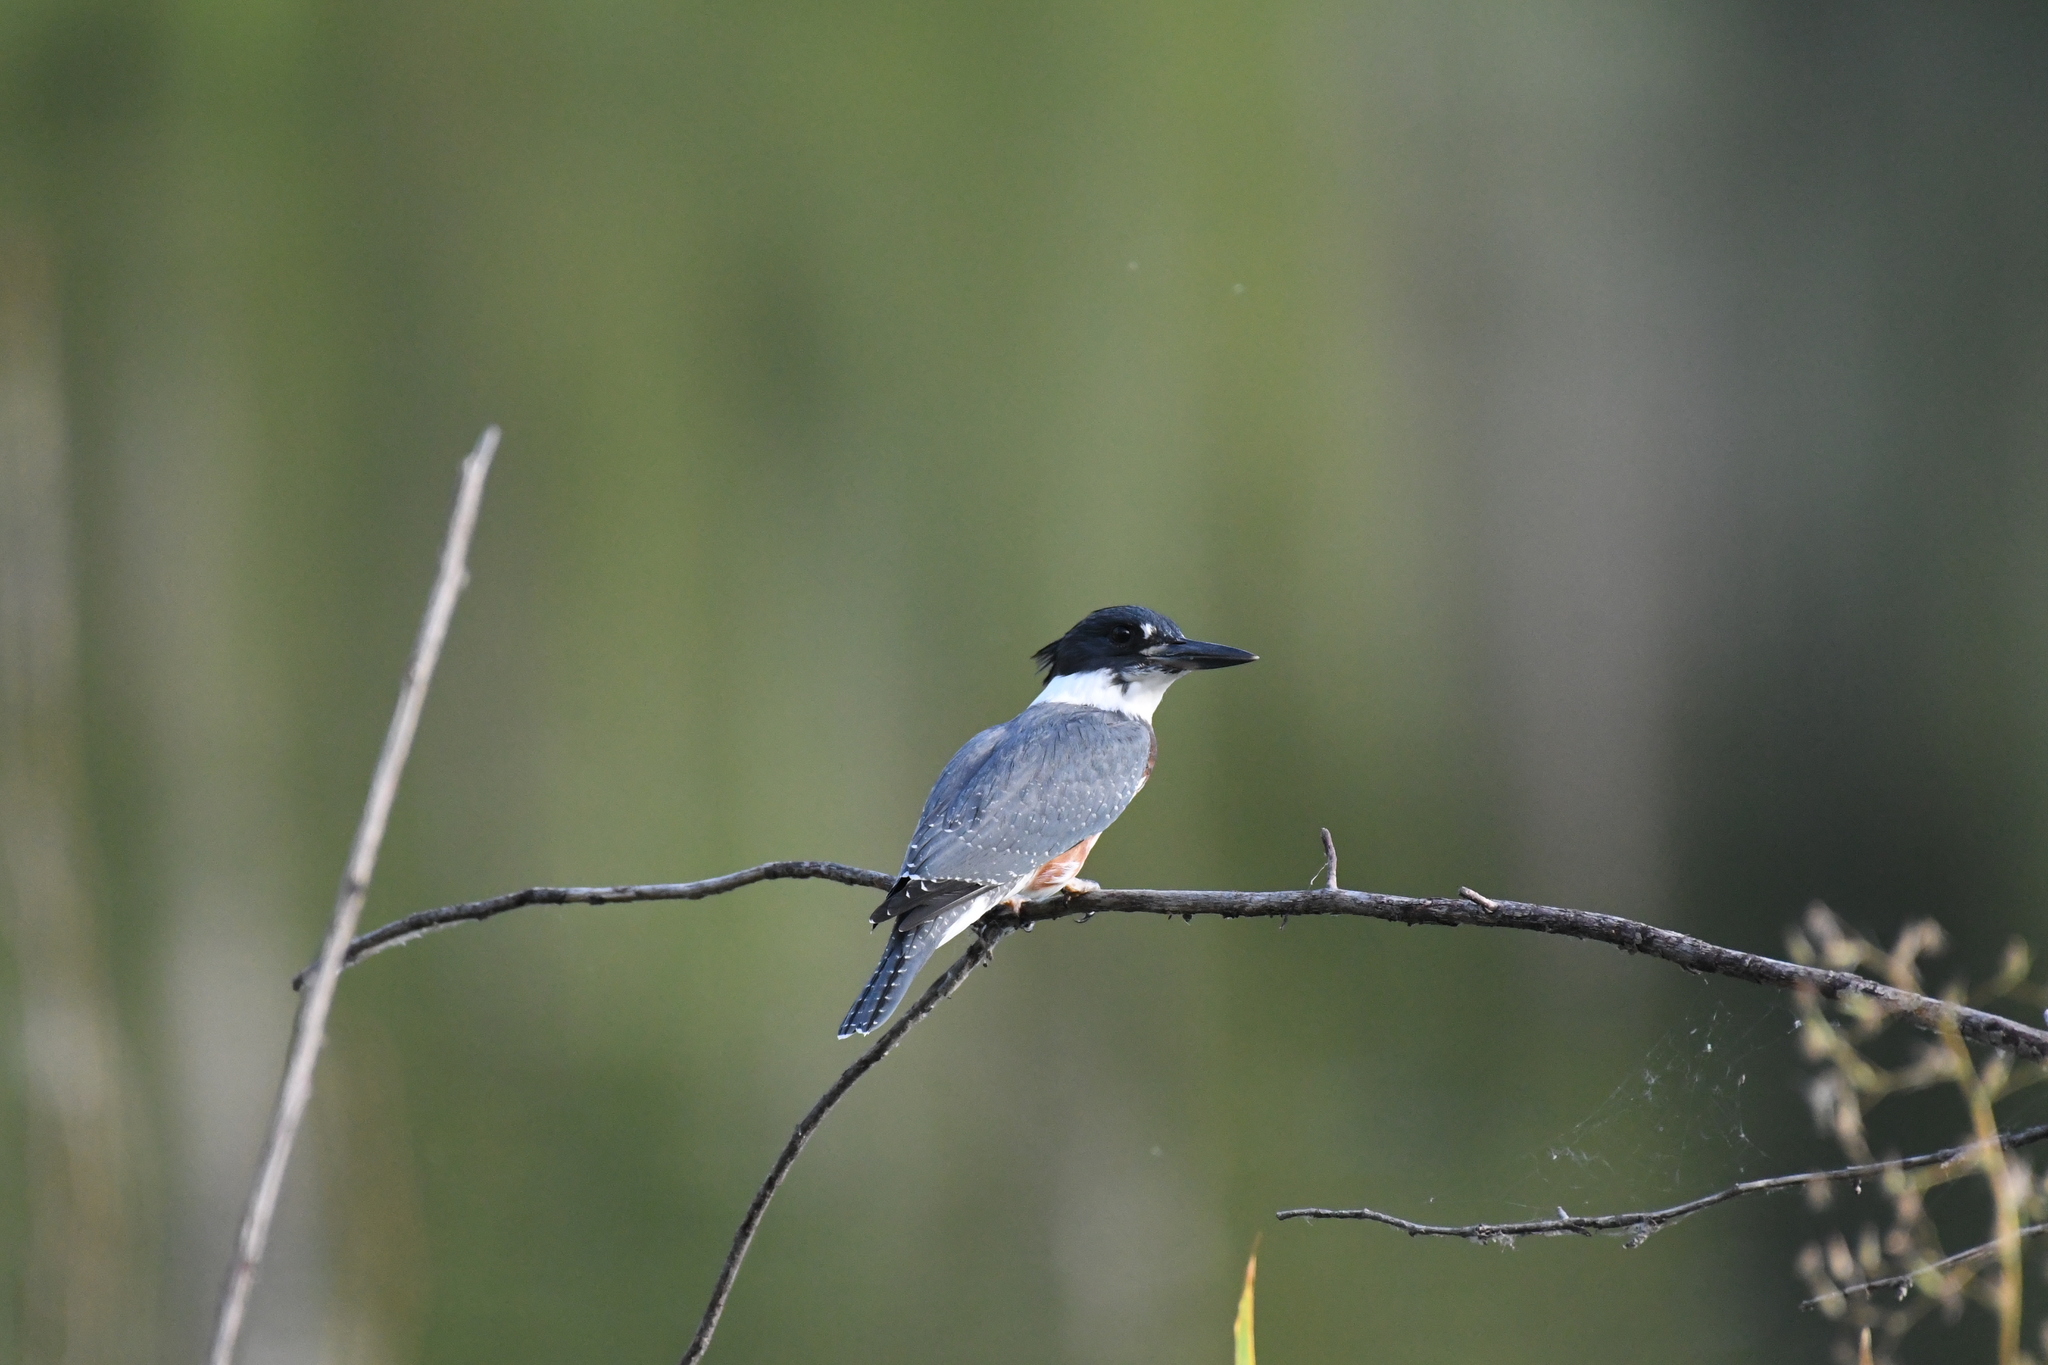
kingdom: Animalia
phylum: Chordata
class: Aves
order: Coraciiformes
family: Alcedinidae
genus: Megaceryle
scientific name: Megaceryle alcyon
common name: Belted kingfisher
